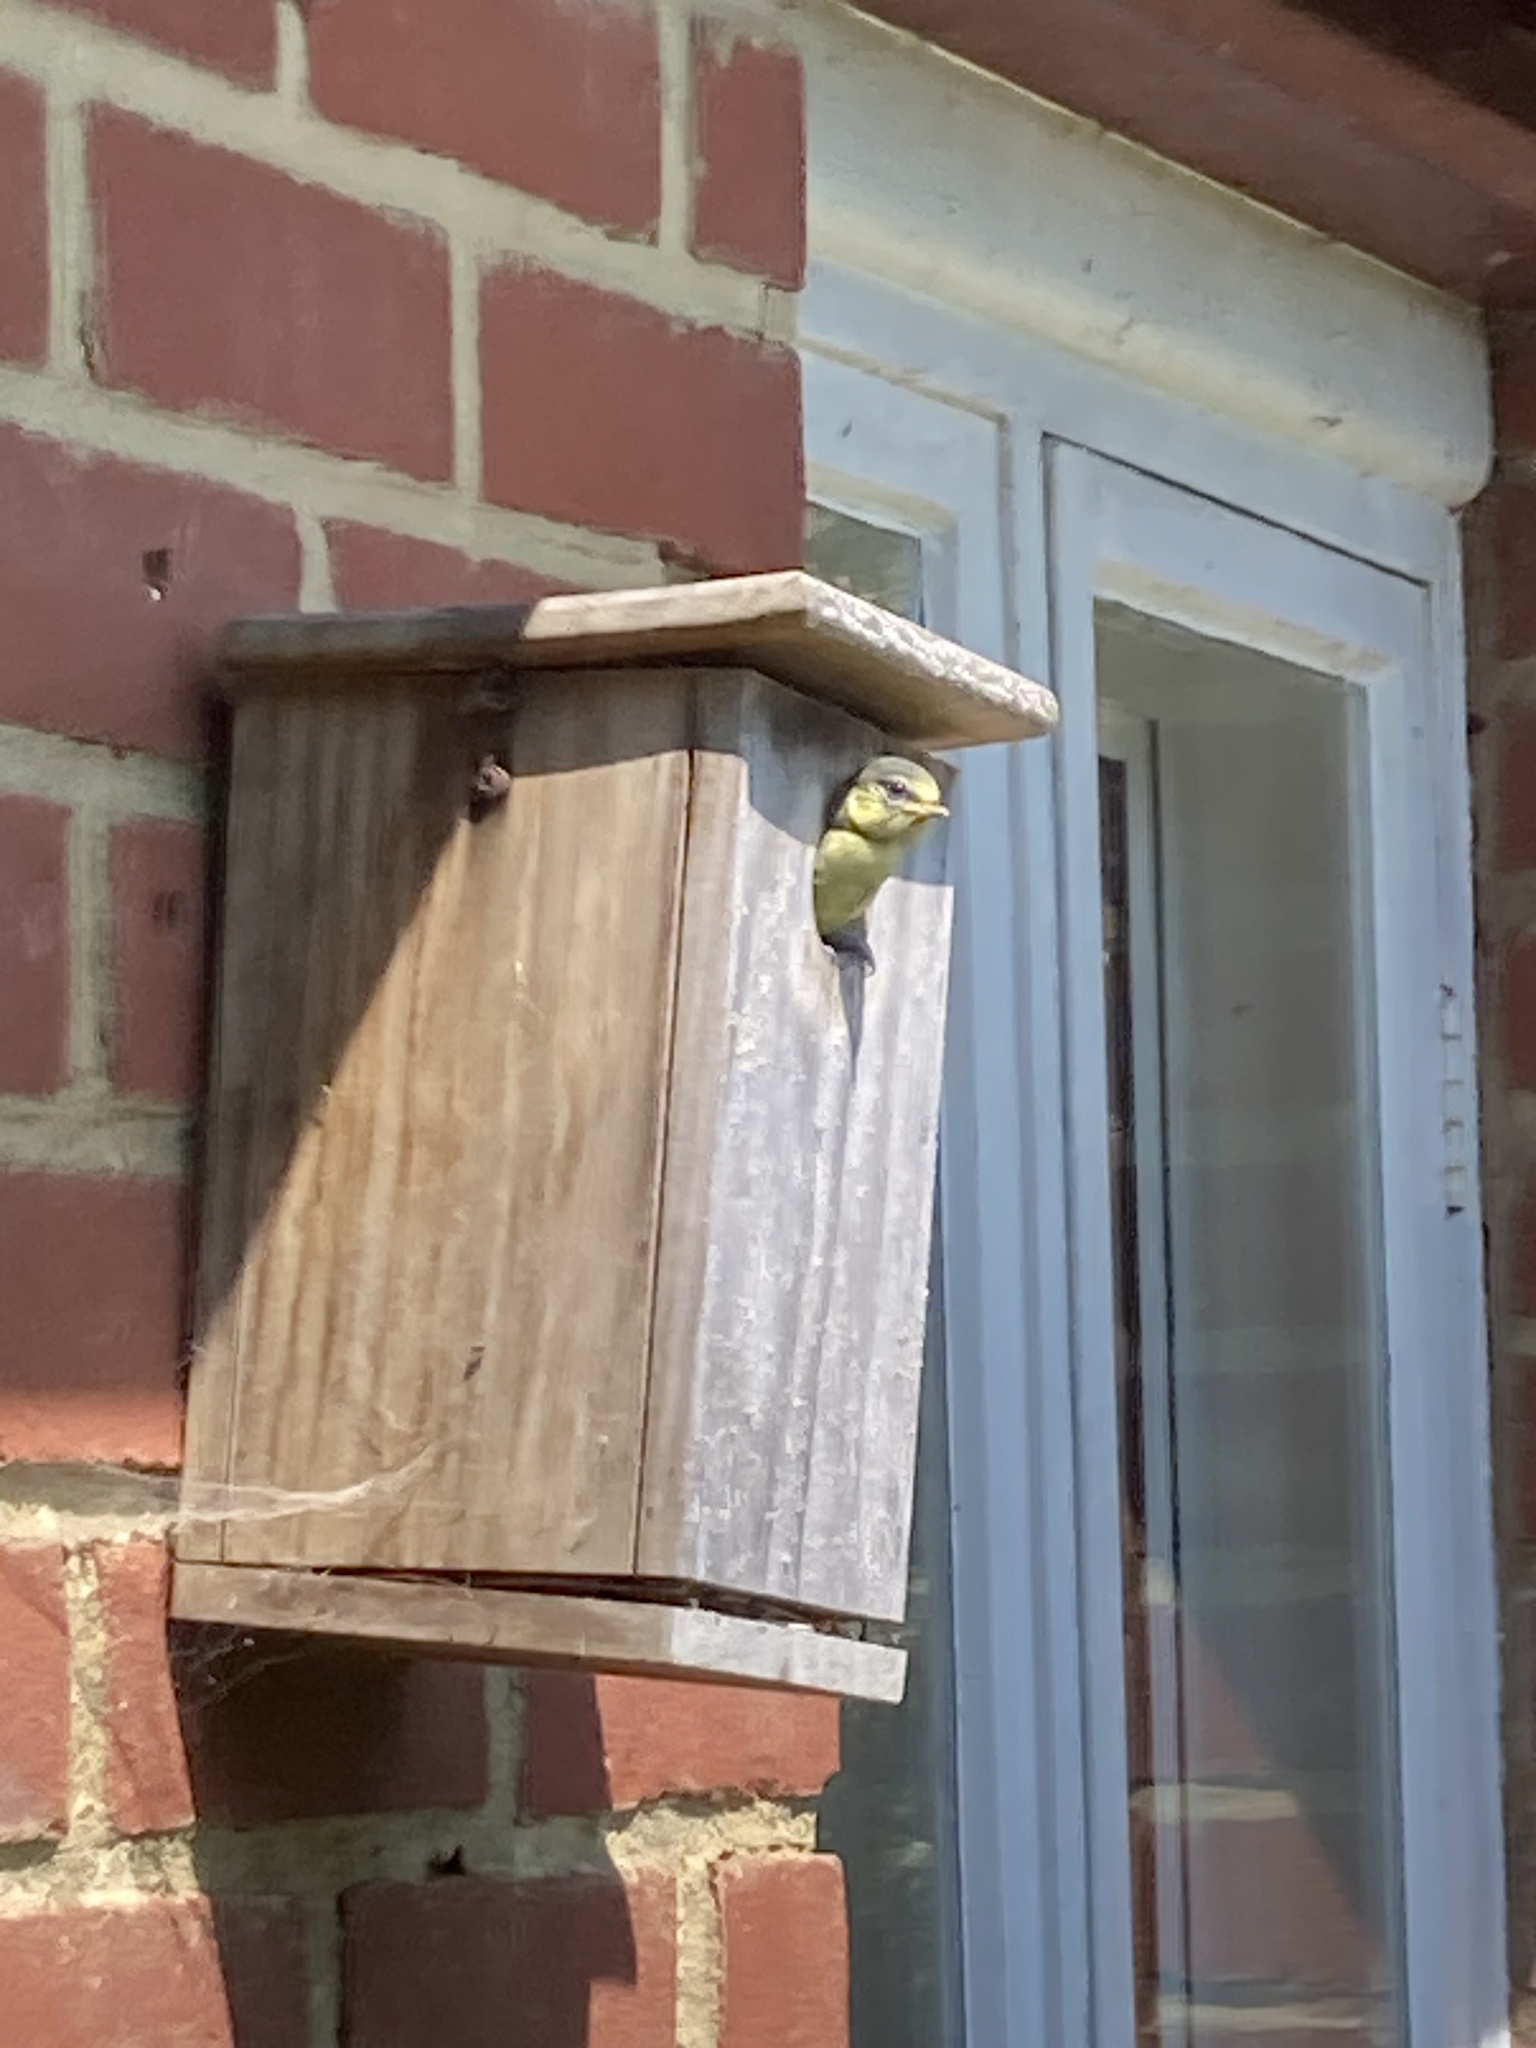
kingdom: Animalia
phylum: Chordata
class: Aves
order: Passeriformes
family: Paridae
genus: Cyanistes
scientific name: Cyanistes caeruleus
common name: Eurasian blue tit
